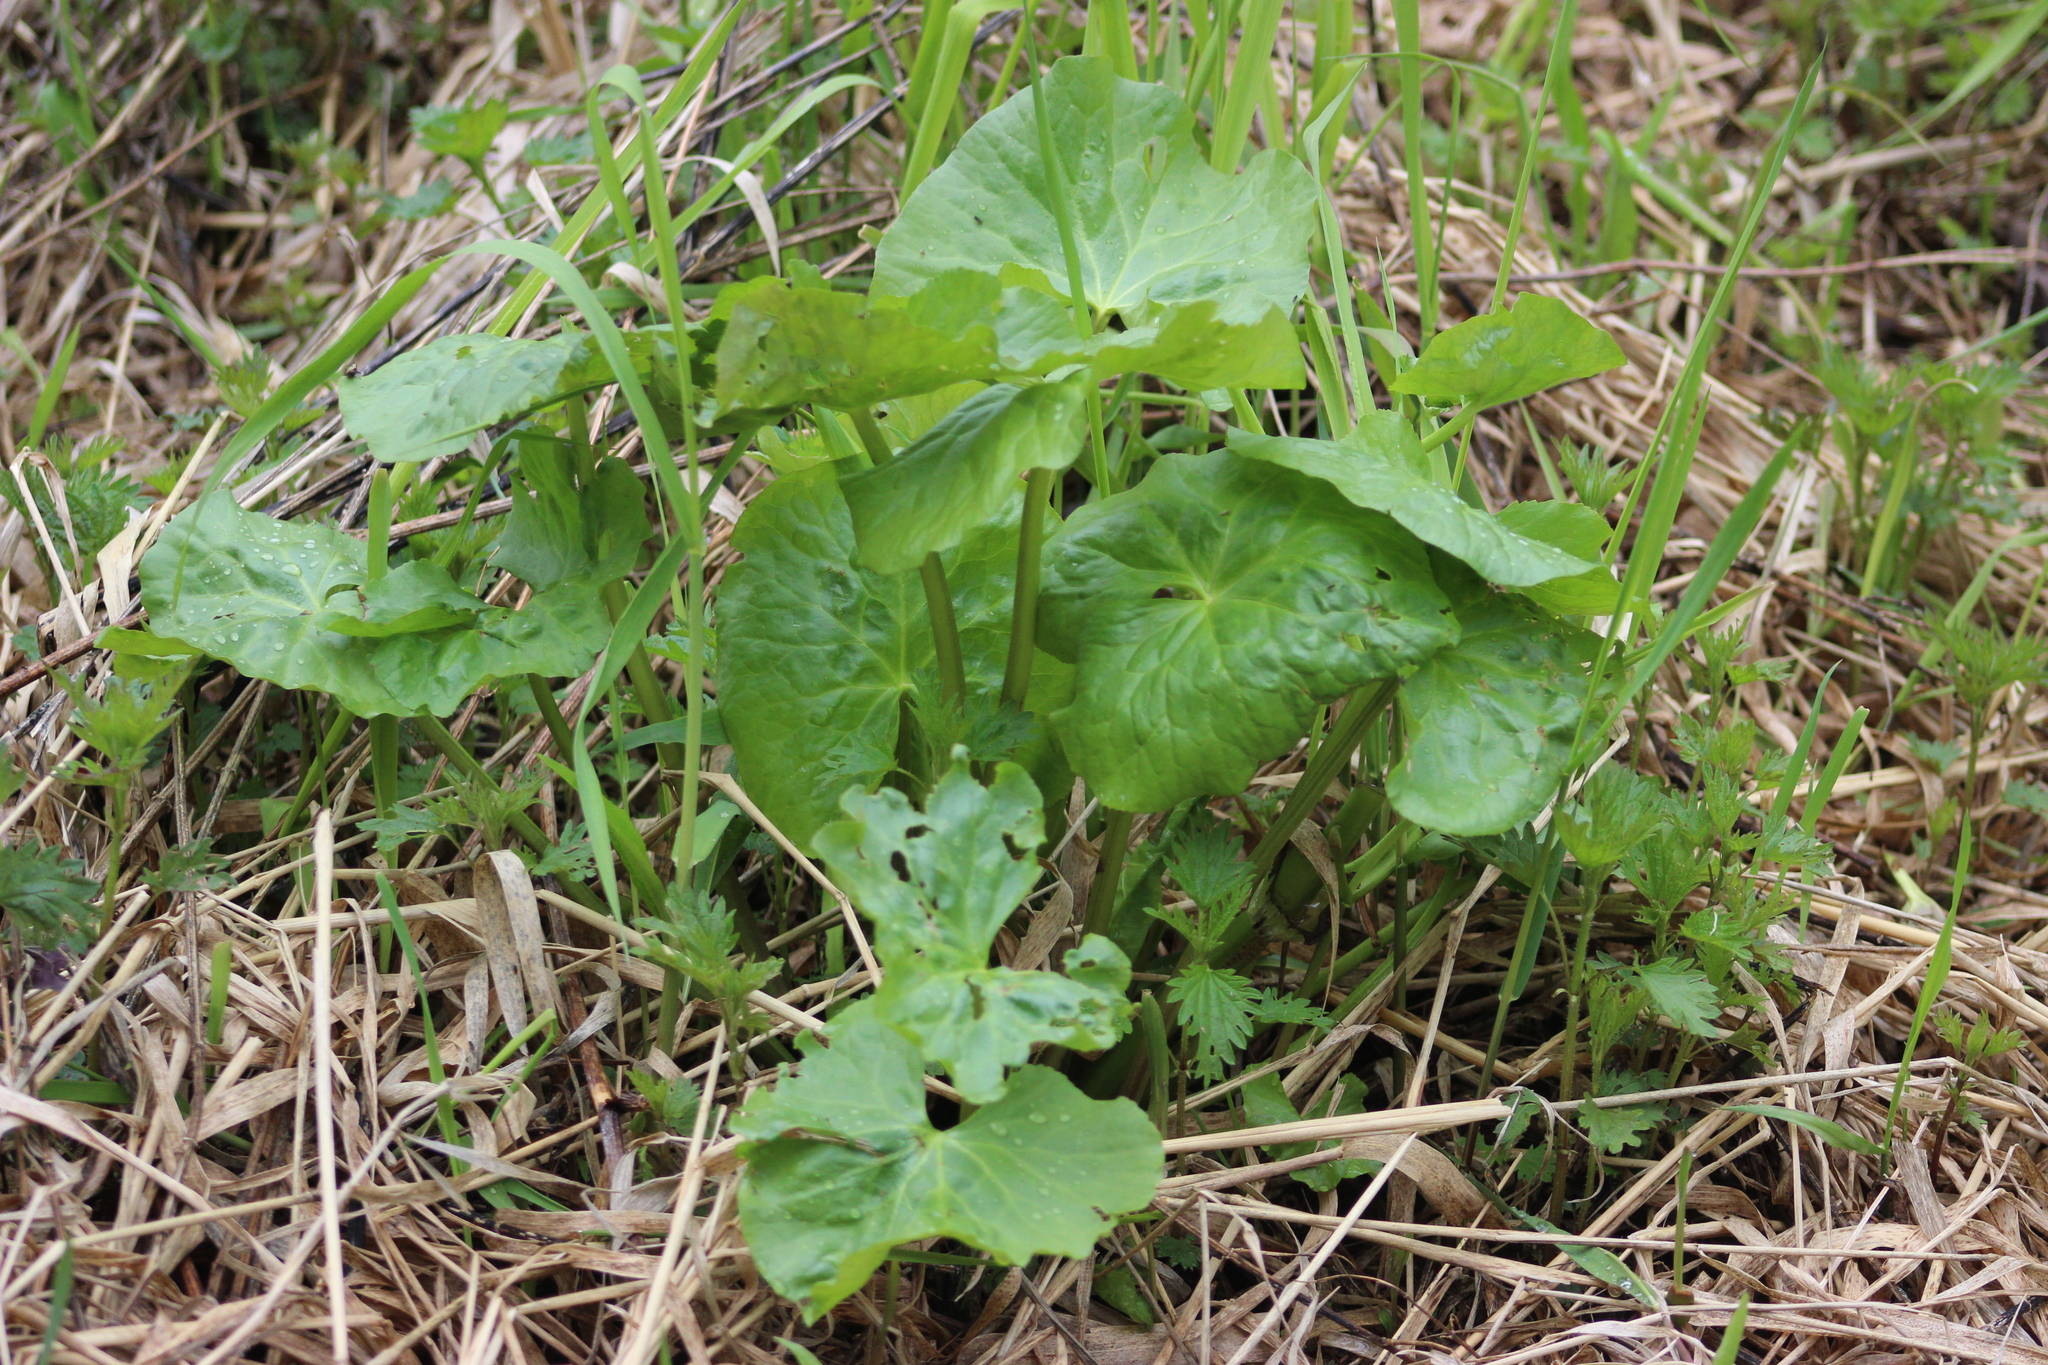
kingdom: Plantae
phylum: Tracheophyta
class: Magnoliopsida
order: Ranunculales
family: Ranunculaceae
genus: Caltha
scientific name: Caltha palustris
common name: Marsh marigold
